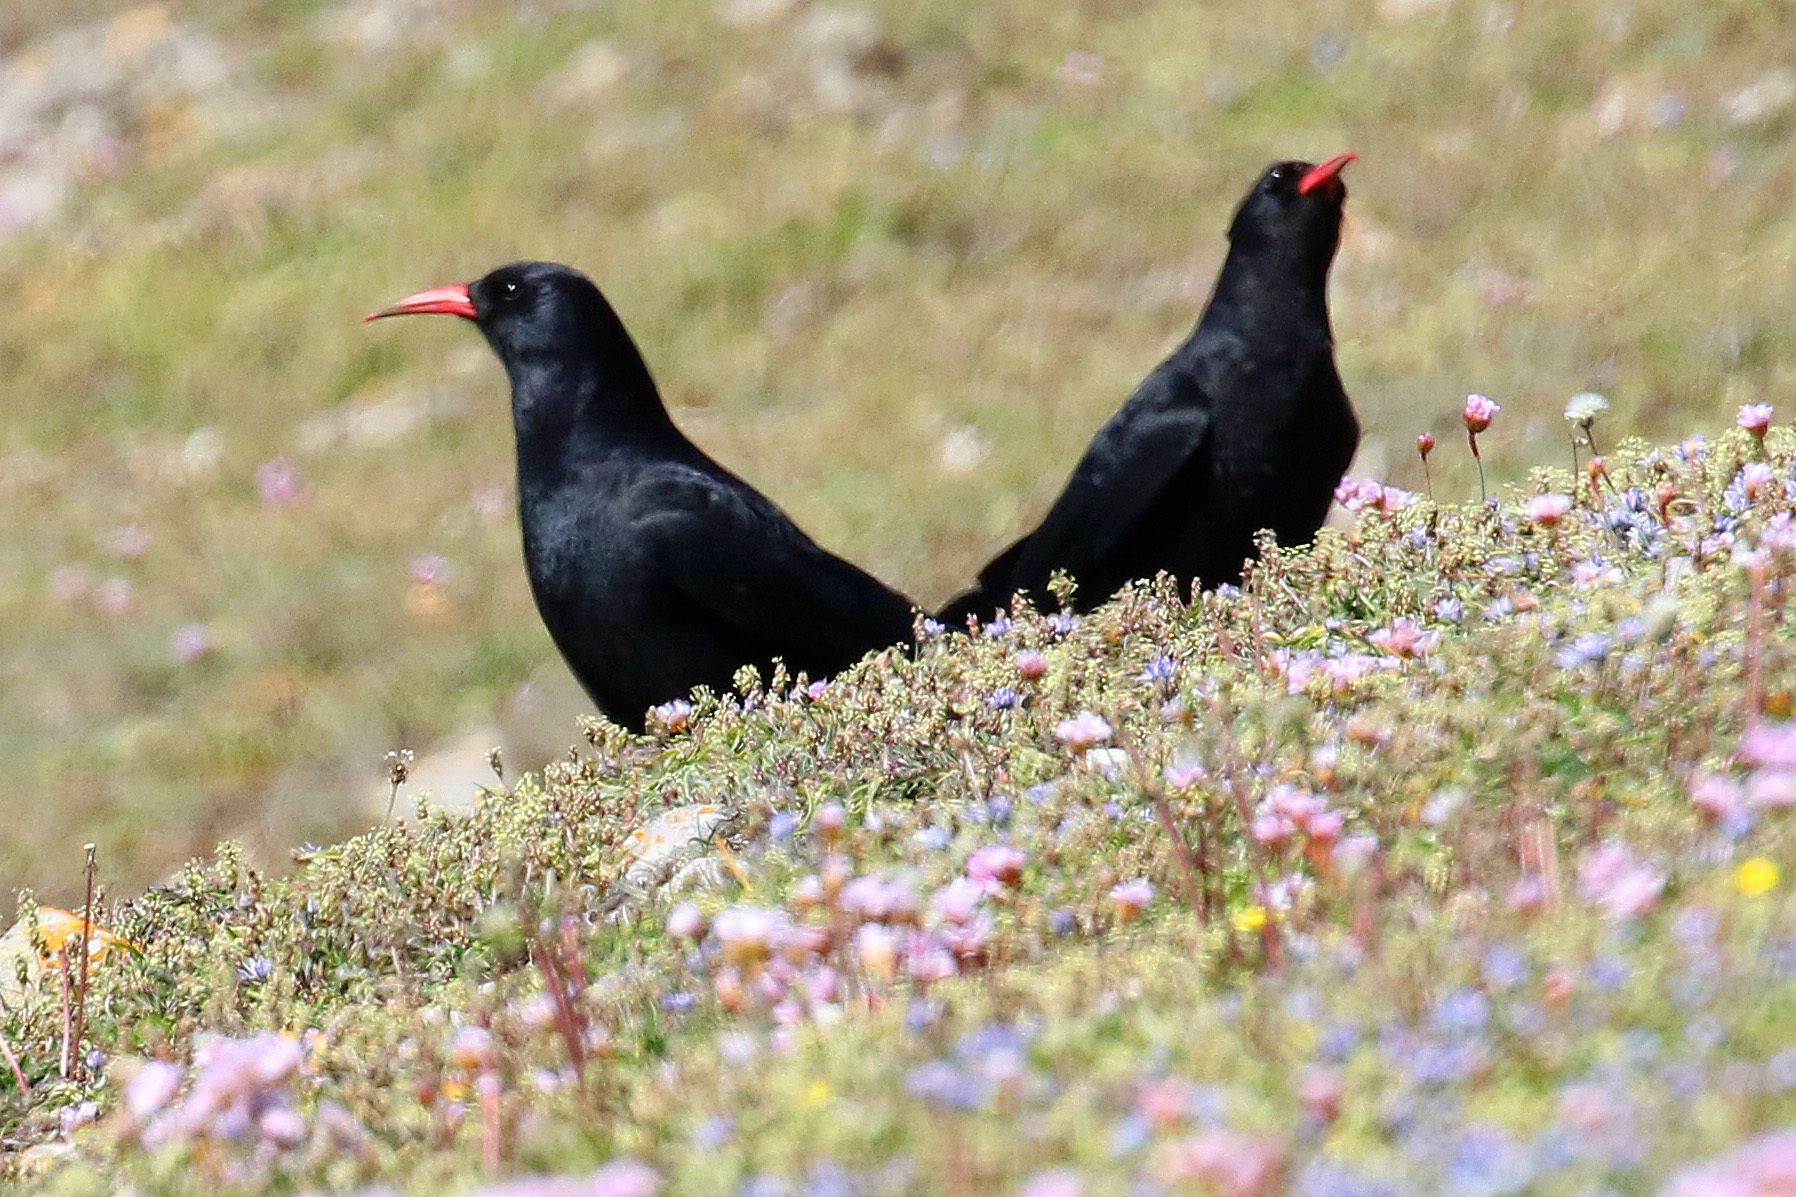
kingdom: Animalia
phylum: Chordata
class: Aves
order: Passeriformes
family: Corvidae
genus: Pyrrhocorax
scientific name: Pyrrhocorax pyrrhocorax
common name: Red-billed chough
